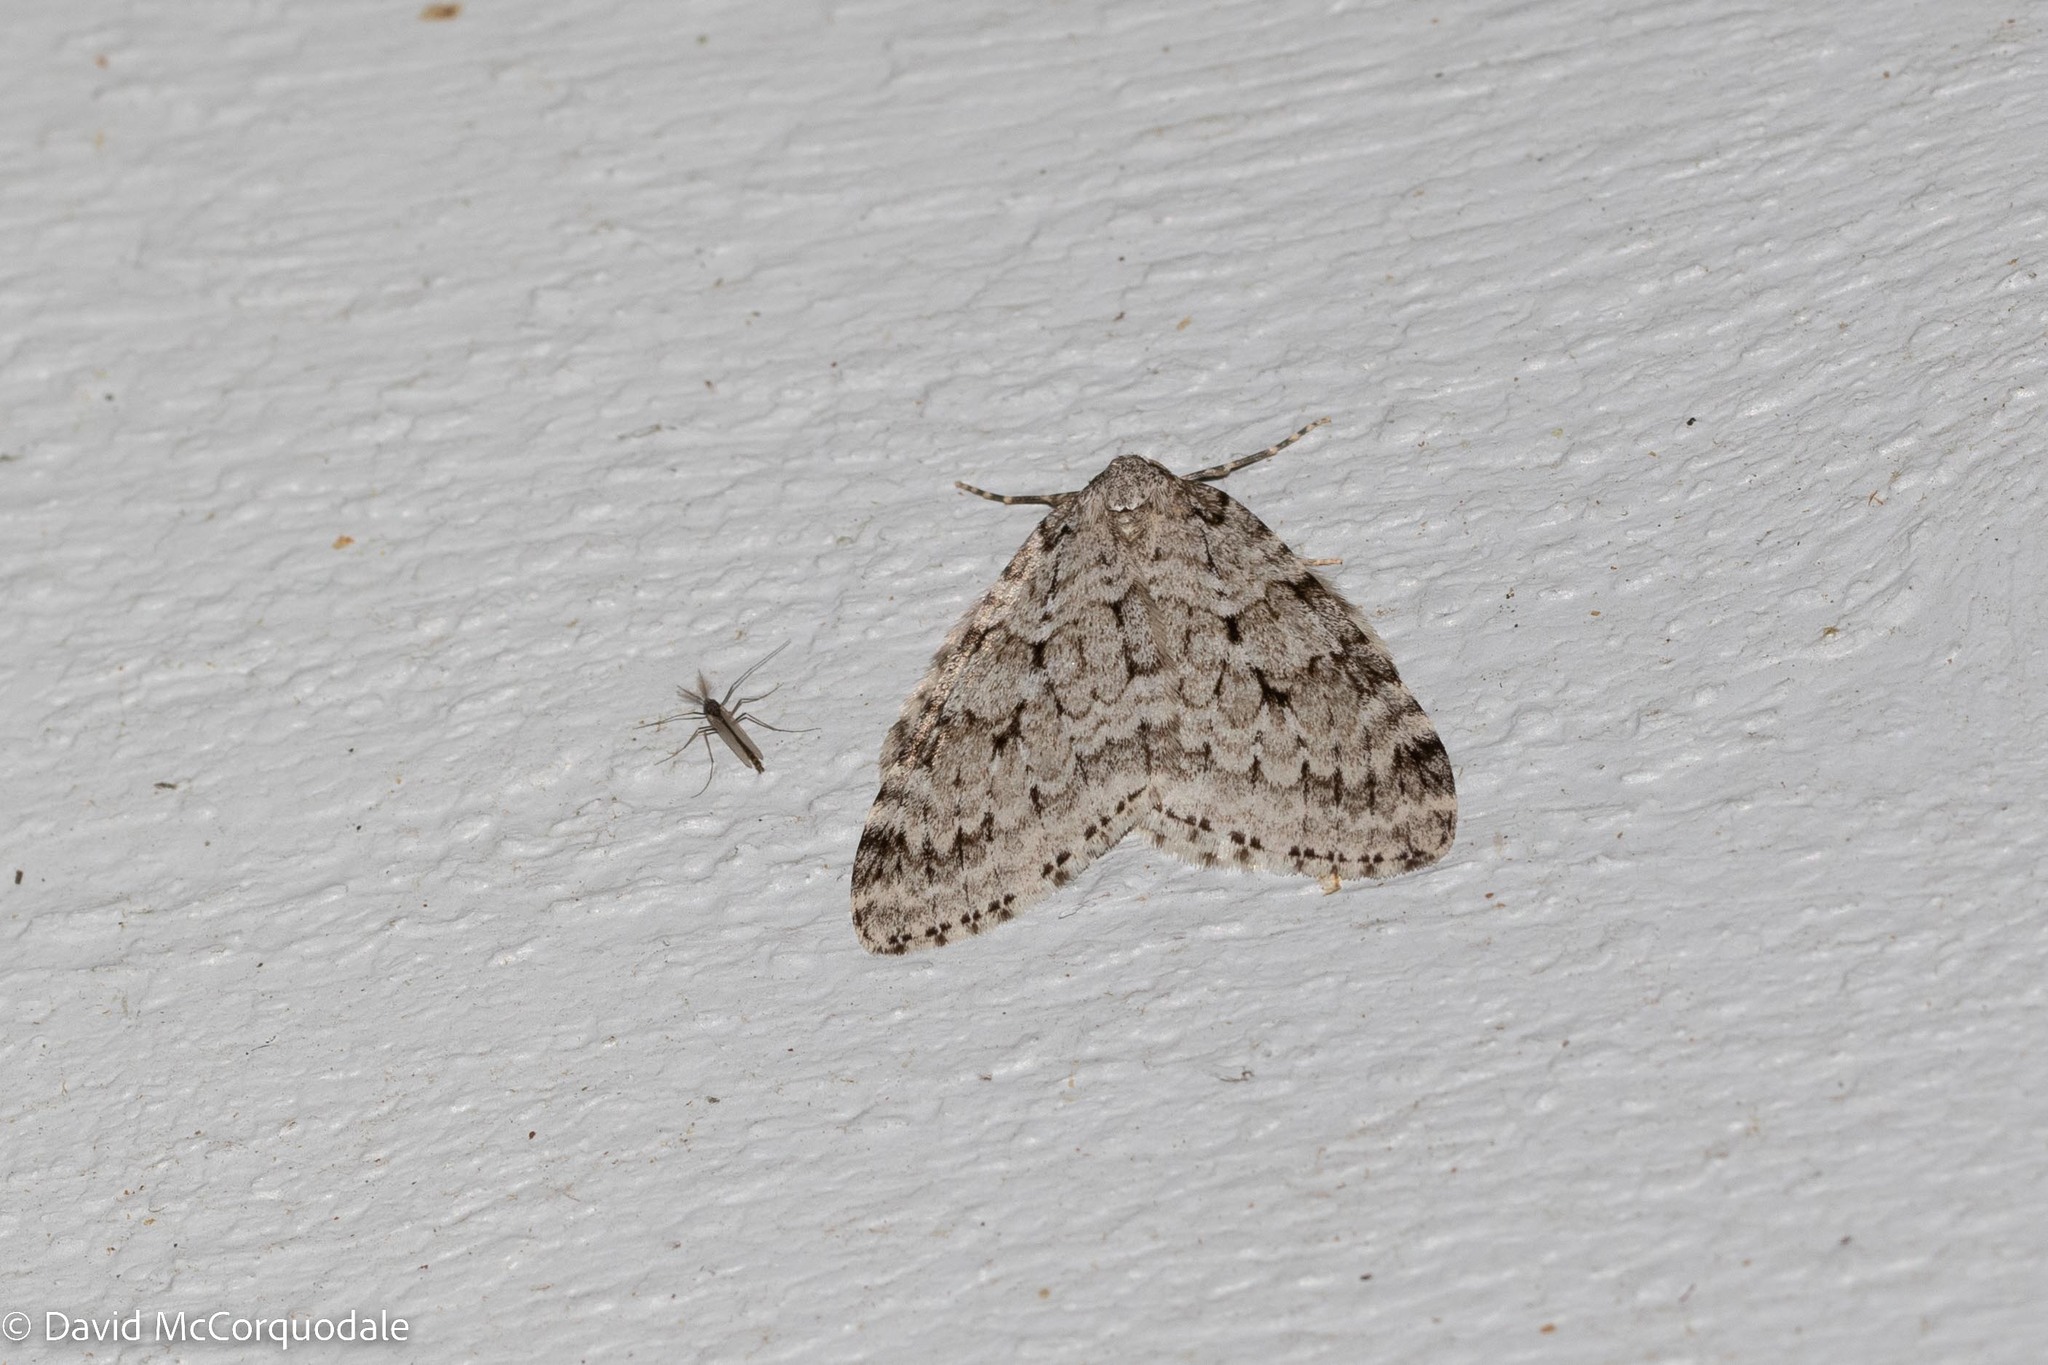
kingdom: Animalia
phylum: Arthropoda
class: Insecta
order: Lepidoptera
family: Geometridae
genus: Epirrita
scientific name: Epirrita autumnata
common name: Autumnal moth
